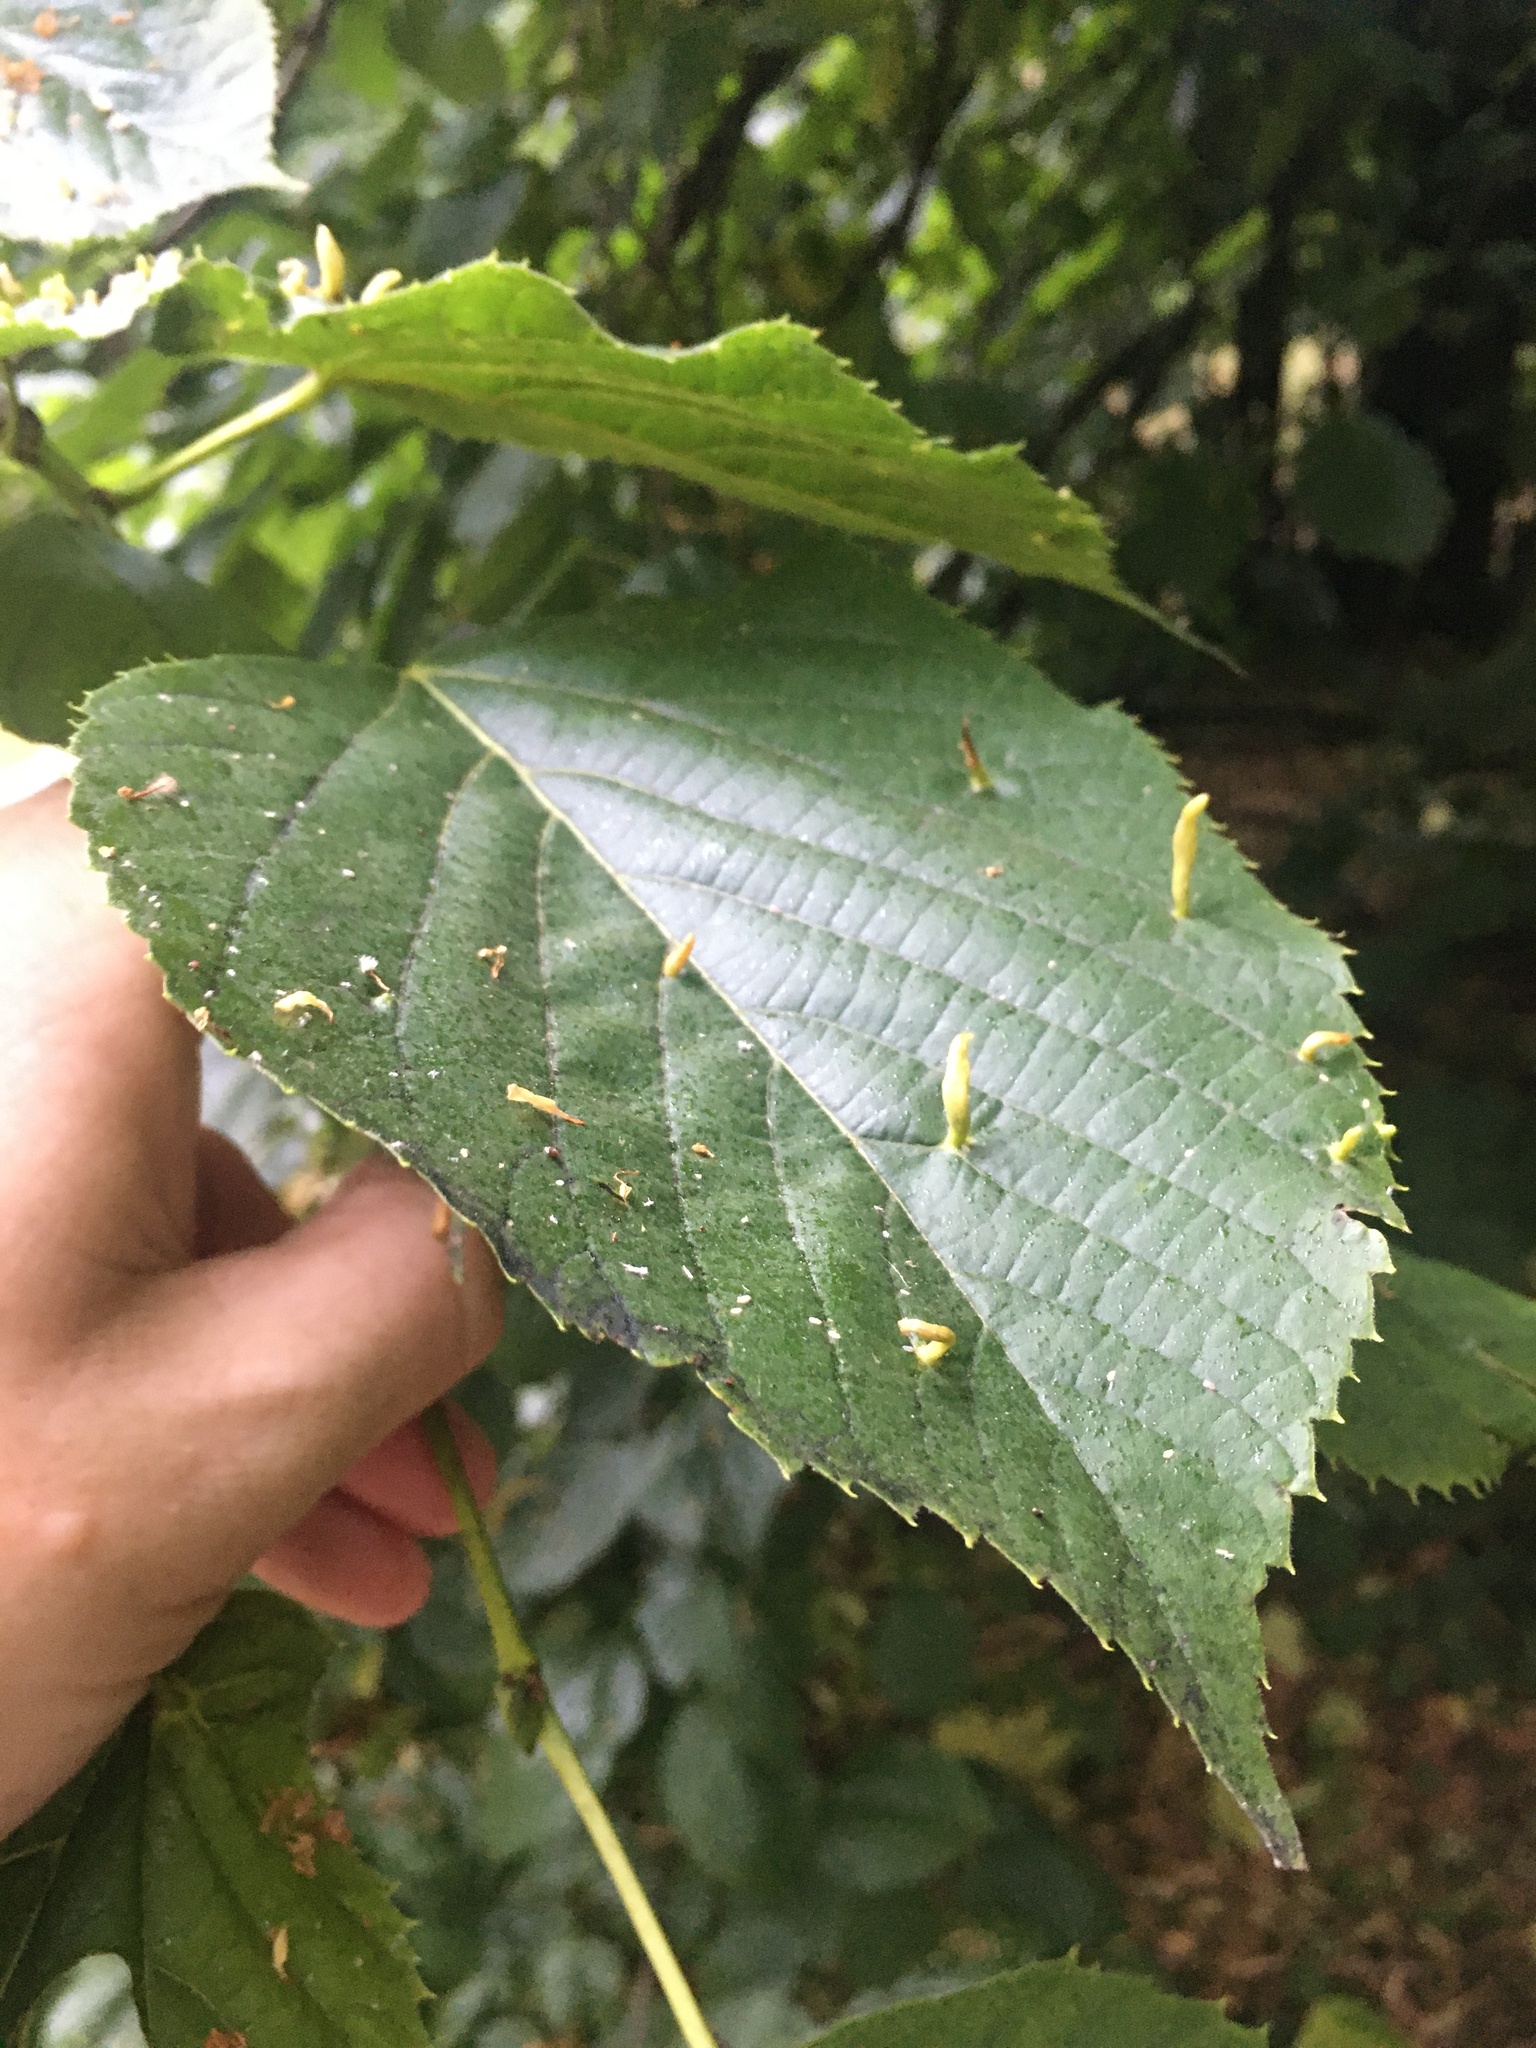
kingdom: Animalia
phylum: Arthropoda
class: Arachnida
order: Trombidiformes
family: Eriophyidae
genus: Eriophyes
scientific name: Eriophyes tiliae
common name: Red nail gall mite
